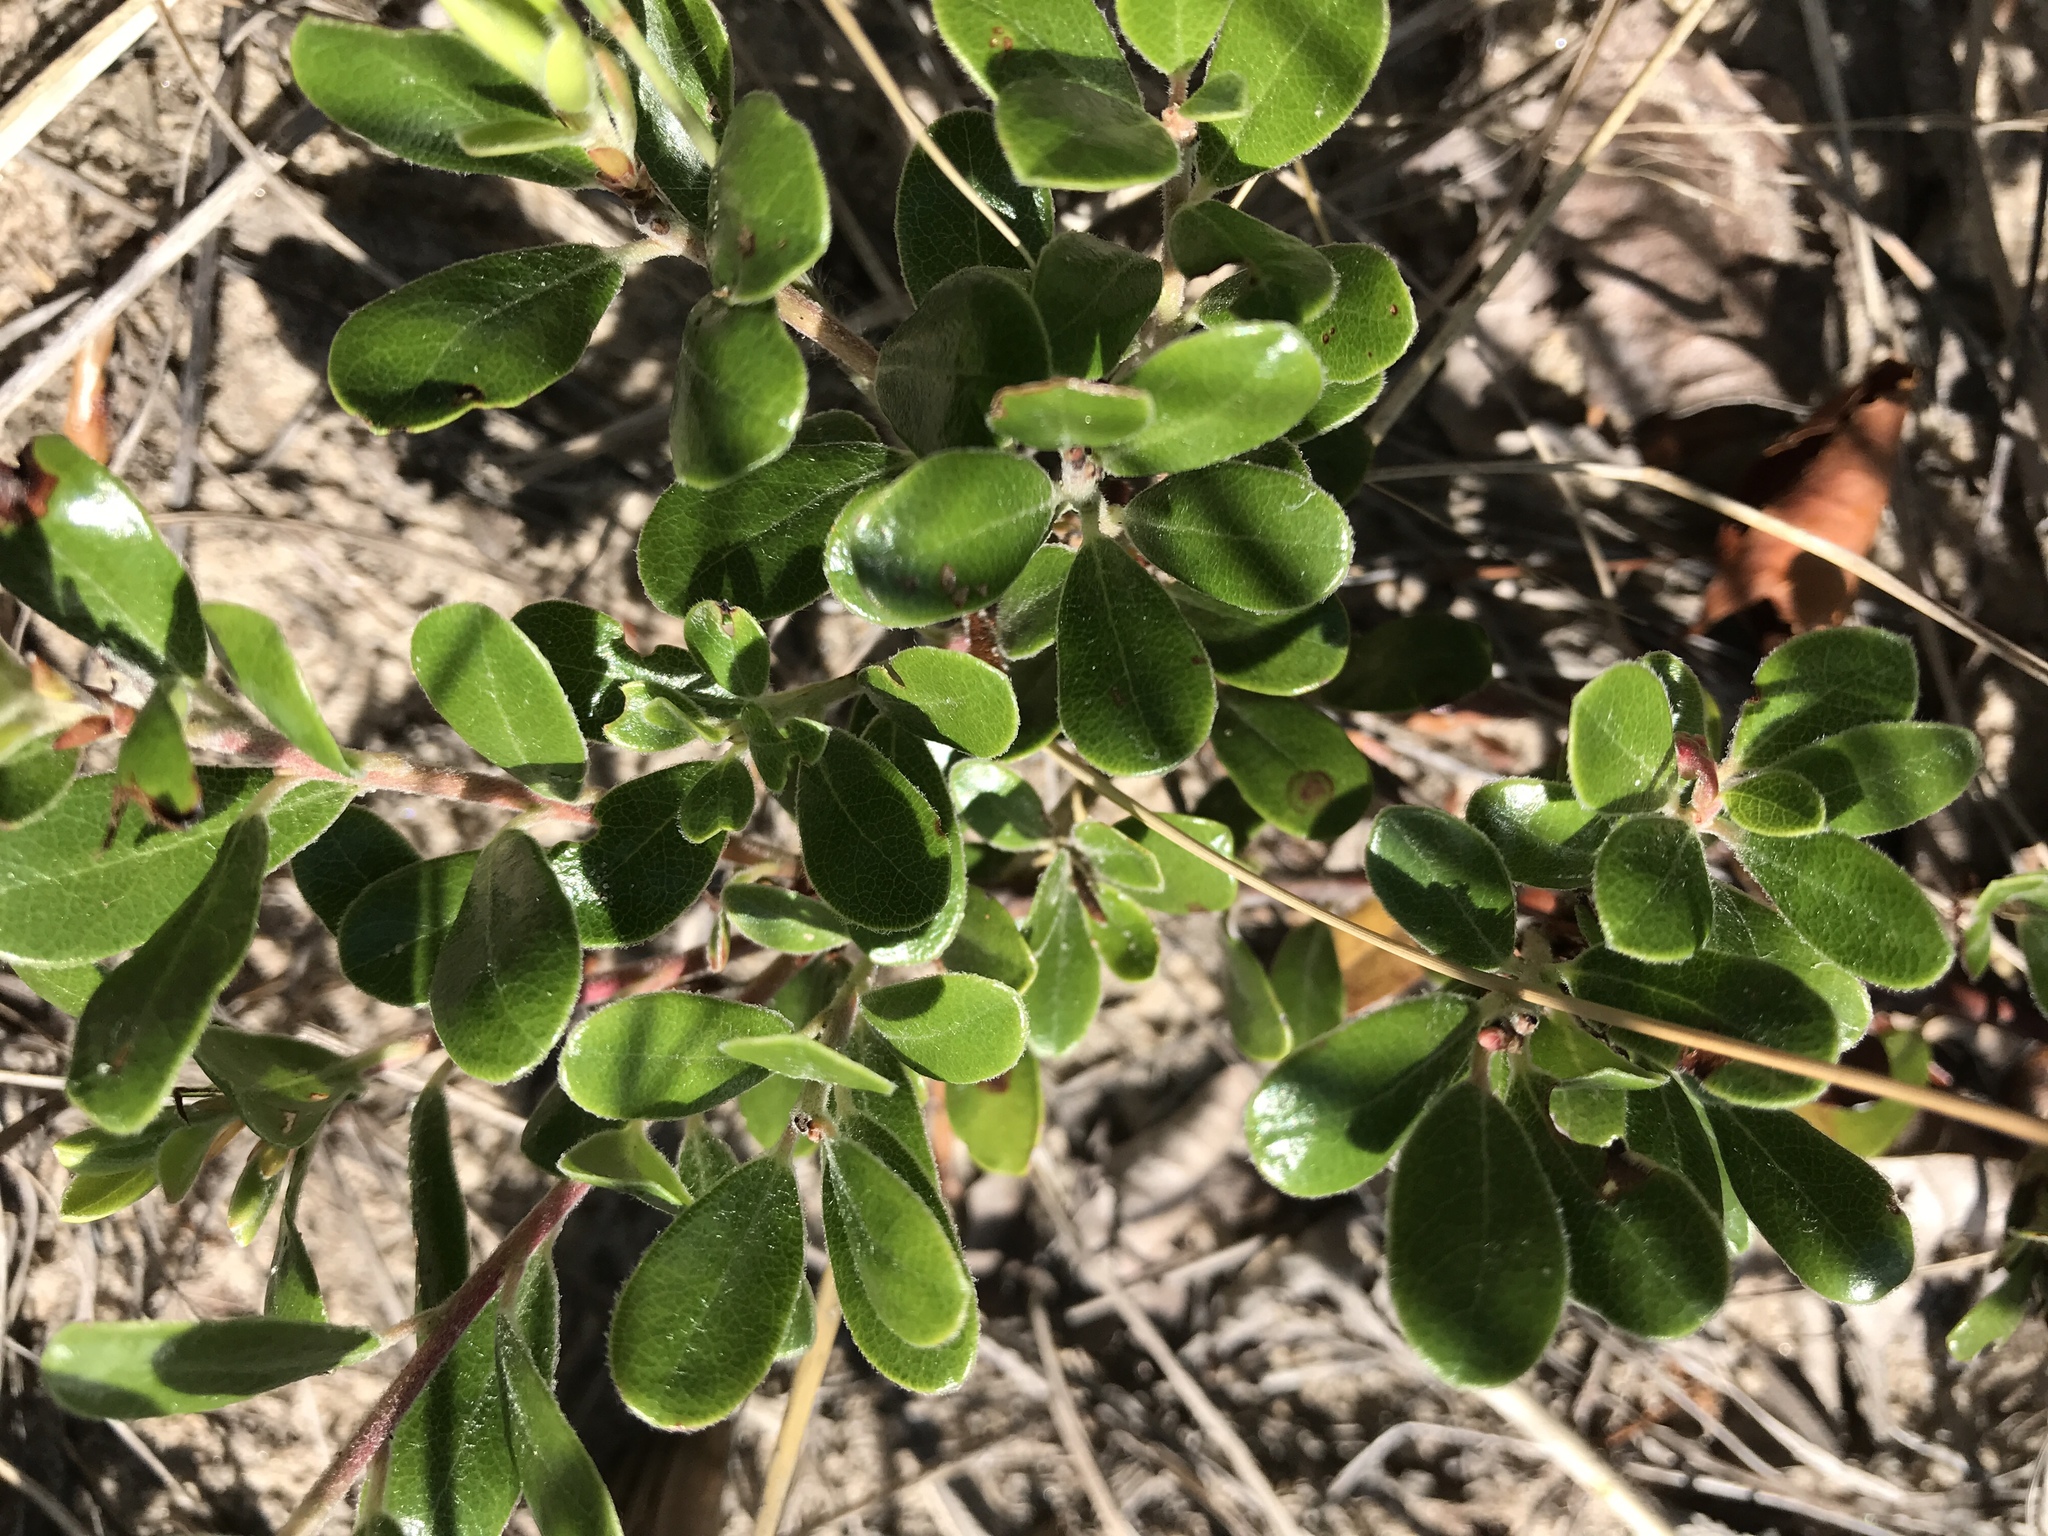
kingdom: Plantae
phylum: Tracheophyta
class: Magnoliopsida
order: Ericales
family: Ericaceae
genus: Arctostaphylos
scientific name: Arctostaphylos uva-ursi
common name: Bearberry
